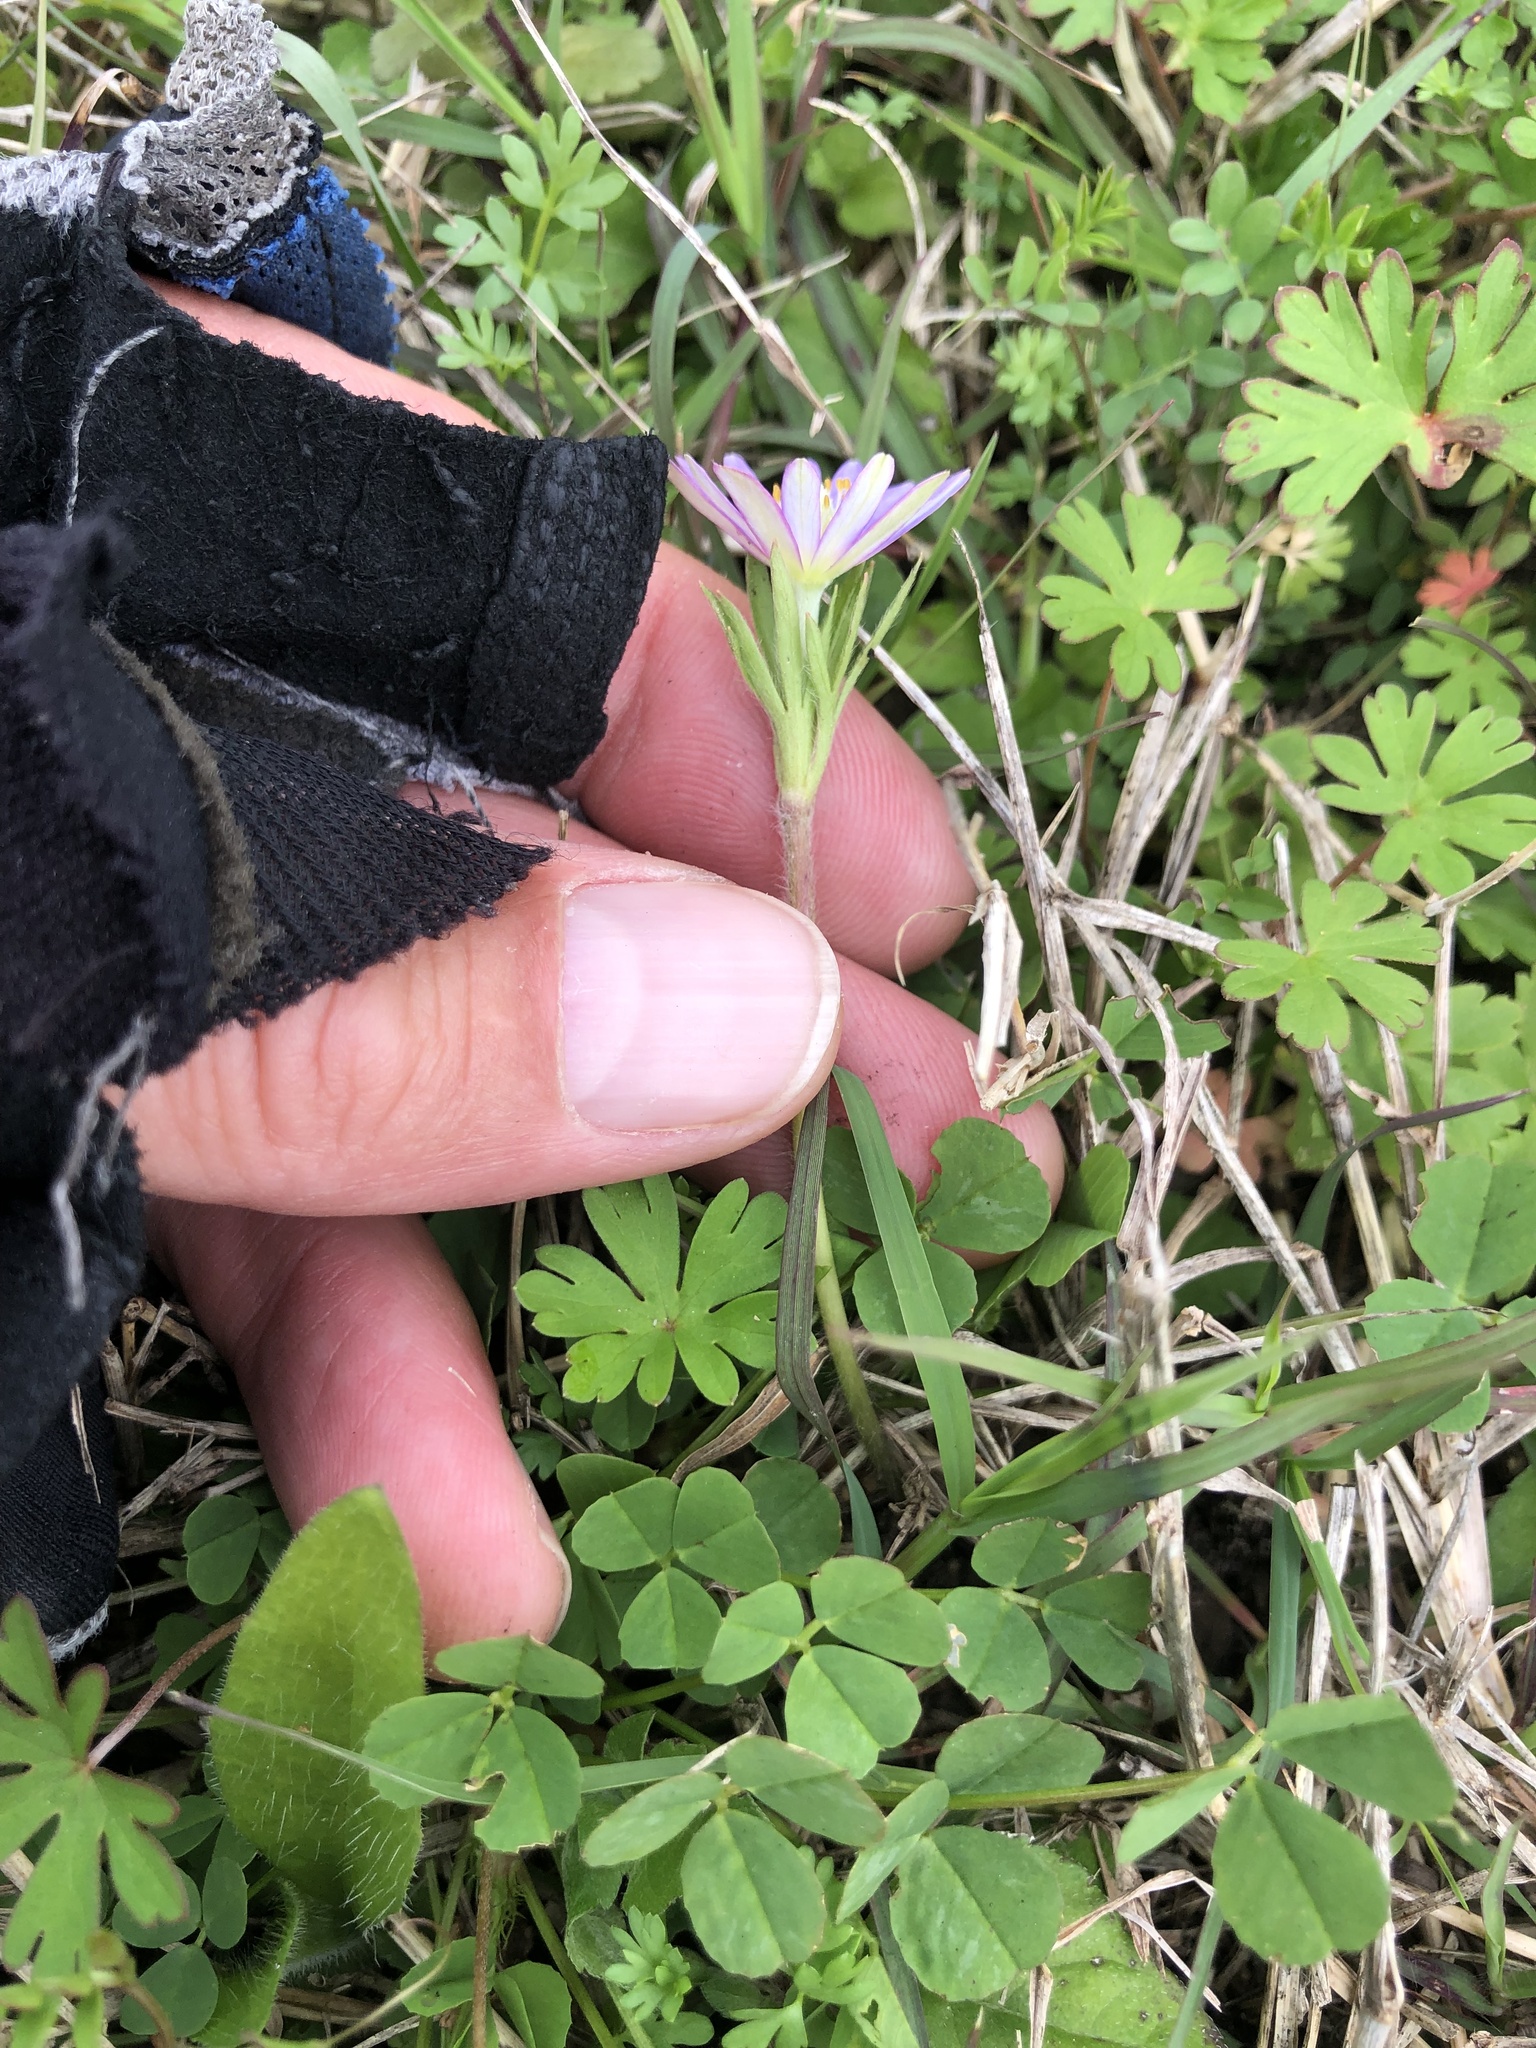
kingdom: Plantae
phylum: Tracheophyta
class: Magnoliopsida
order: Ranunculales
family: Ranunculaceae
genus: Anemone
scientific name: Anemone berlandieri
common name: Ten-petal anemone
